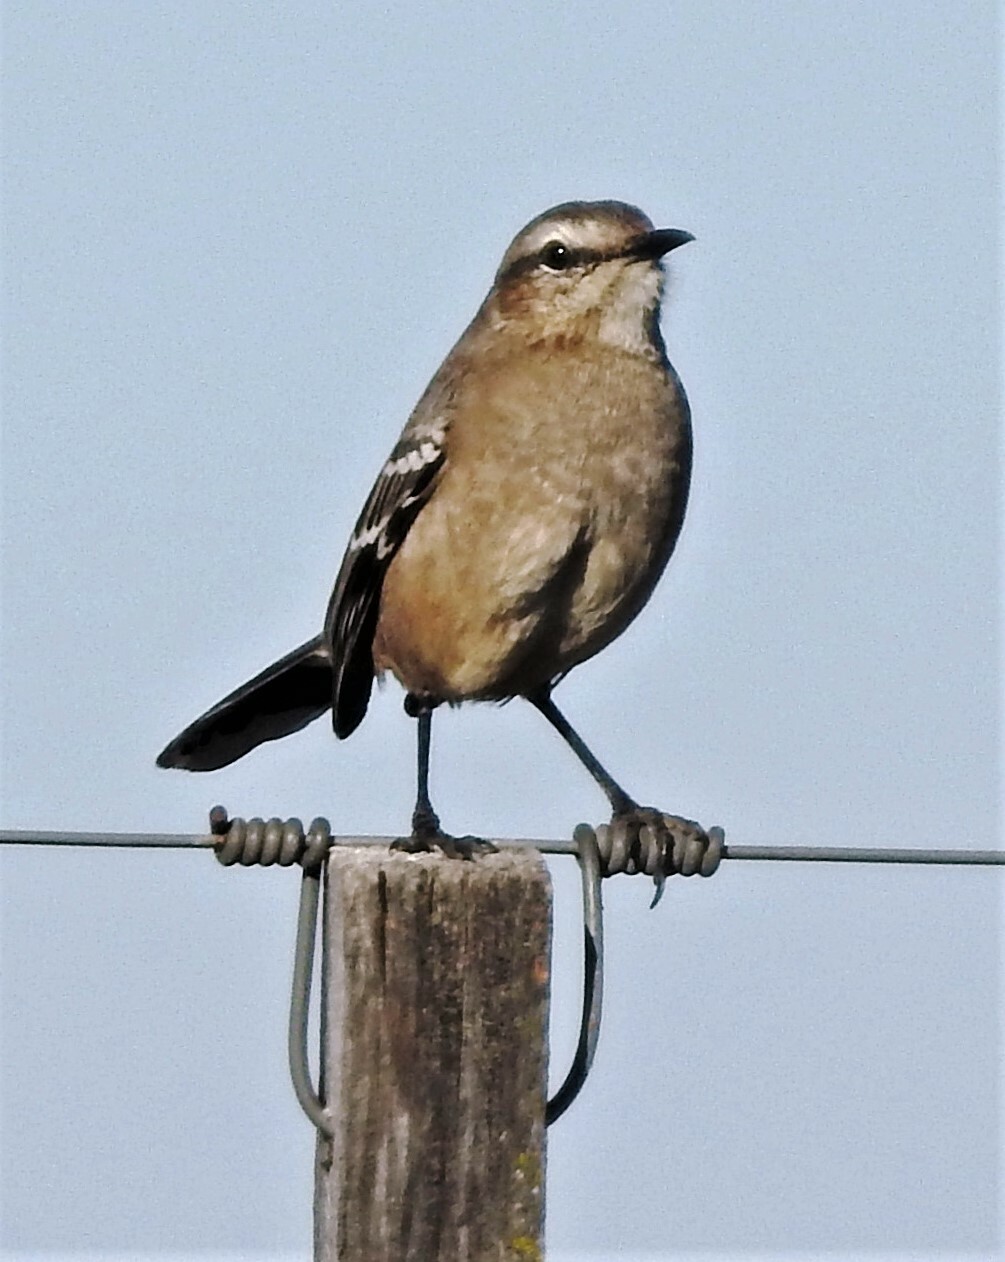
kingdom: Animalia
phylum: Chordata
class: Aves
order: Passeriformes
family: Mimidae
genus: Mimus
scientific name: Mimus patagonicus
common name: Patagonian mockingbird
